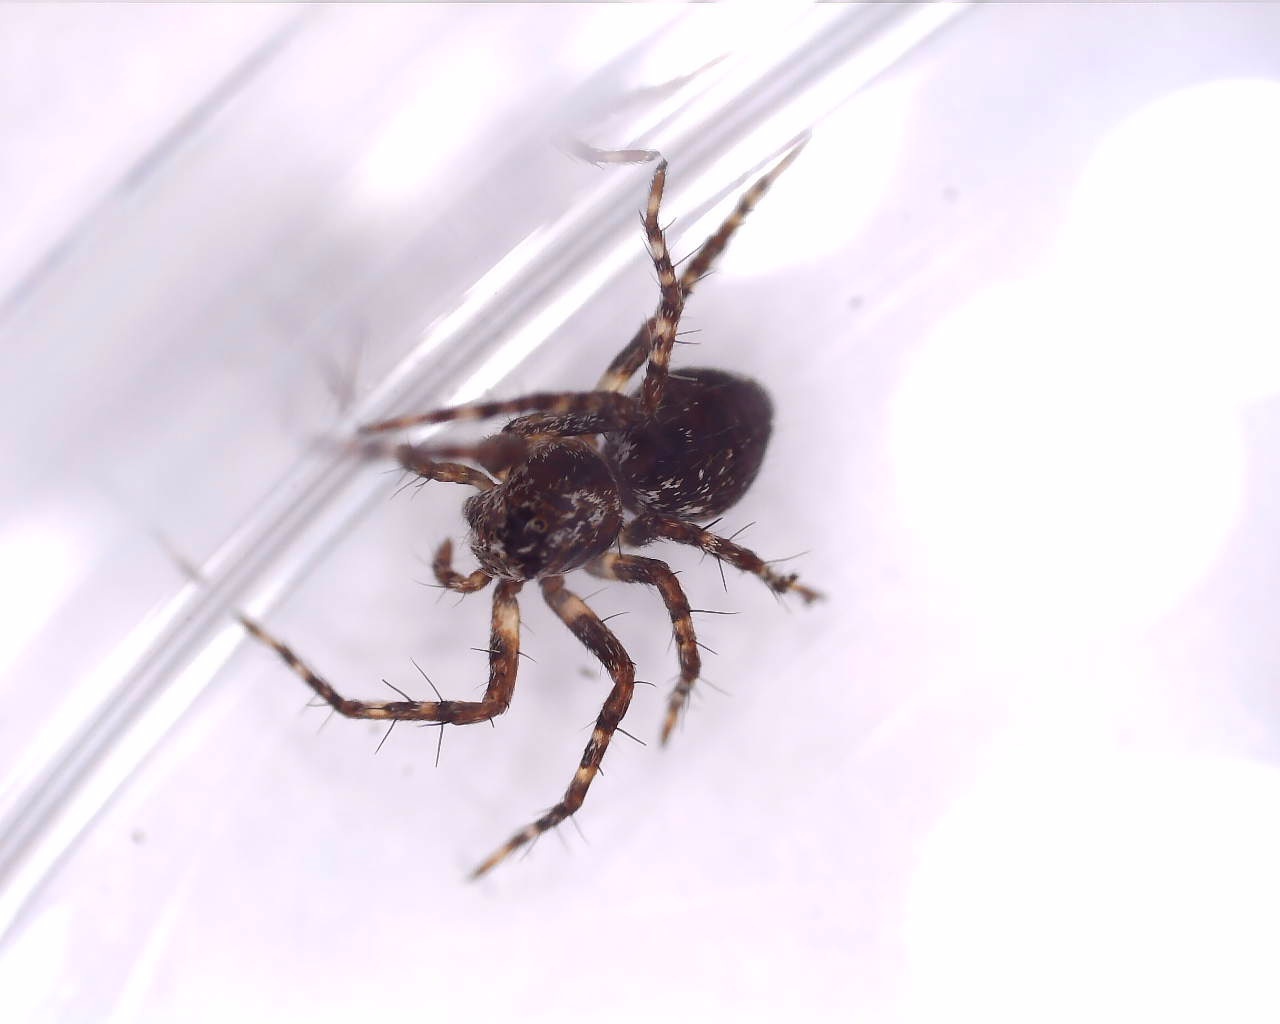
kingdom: Animalia
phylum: Arthropoda
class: Arachnida
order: Araneae
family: Oxyopidae
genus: Oxyopes
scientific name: Oxyopes ramosus
